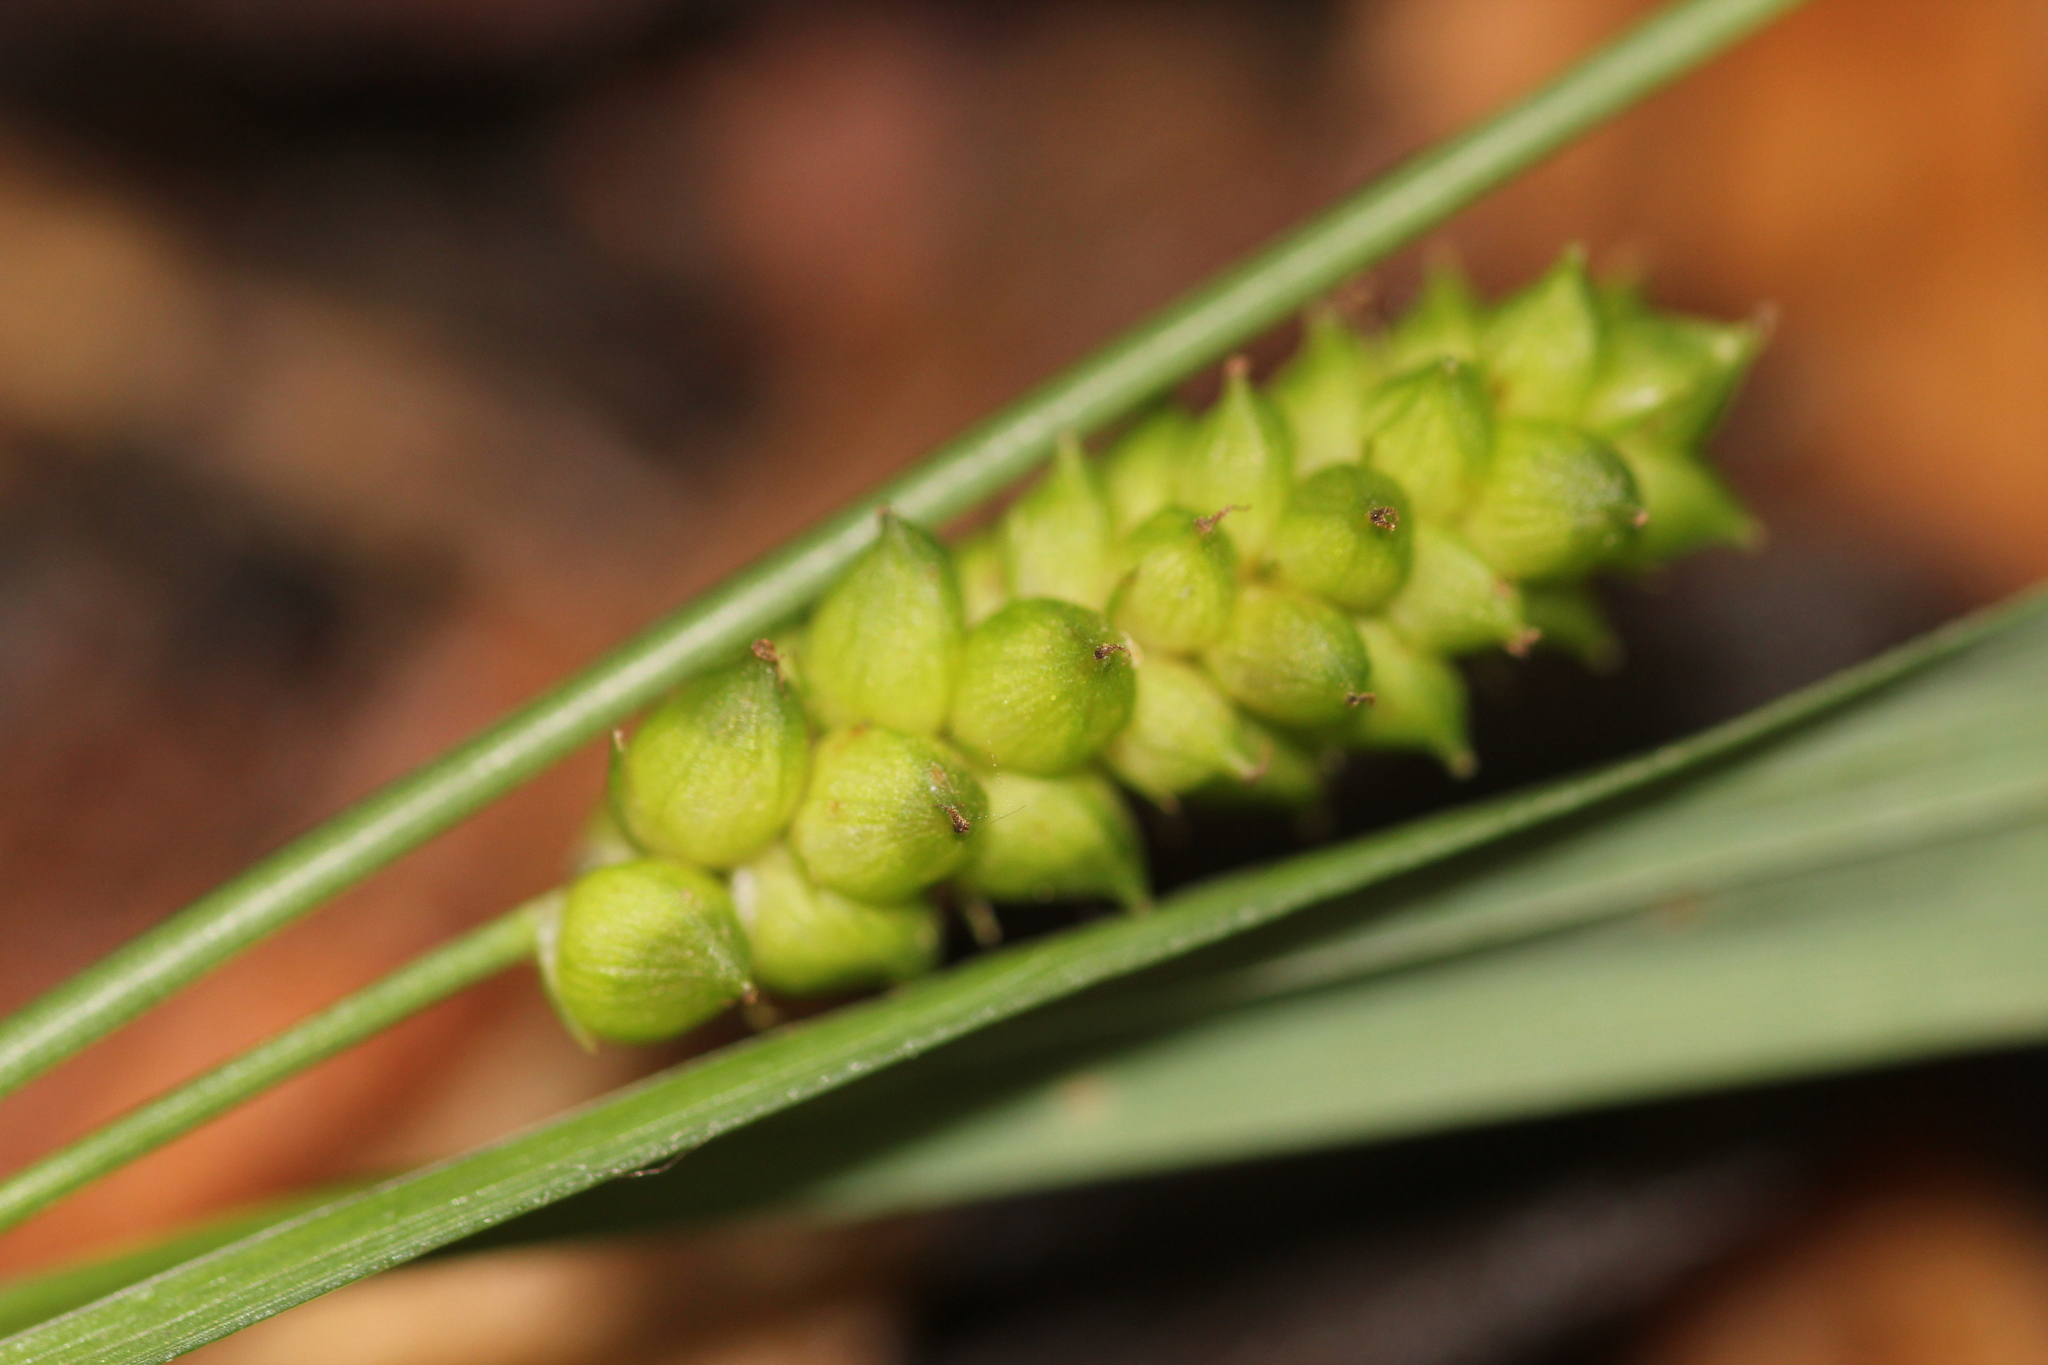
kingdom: Plantae
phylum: Tracheophyta
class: Liliopsida
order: Poales
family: Cyperaceae
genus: Carex
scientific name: Carex granularis
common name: Granular sedge
